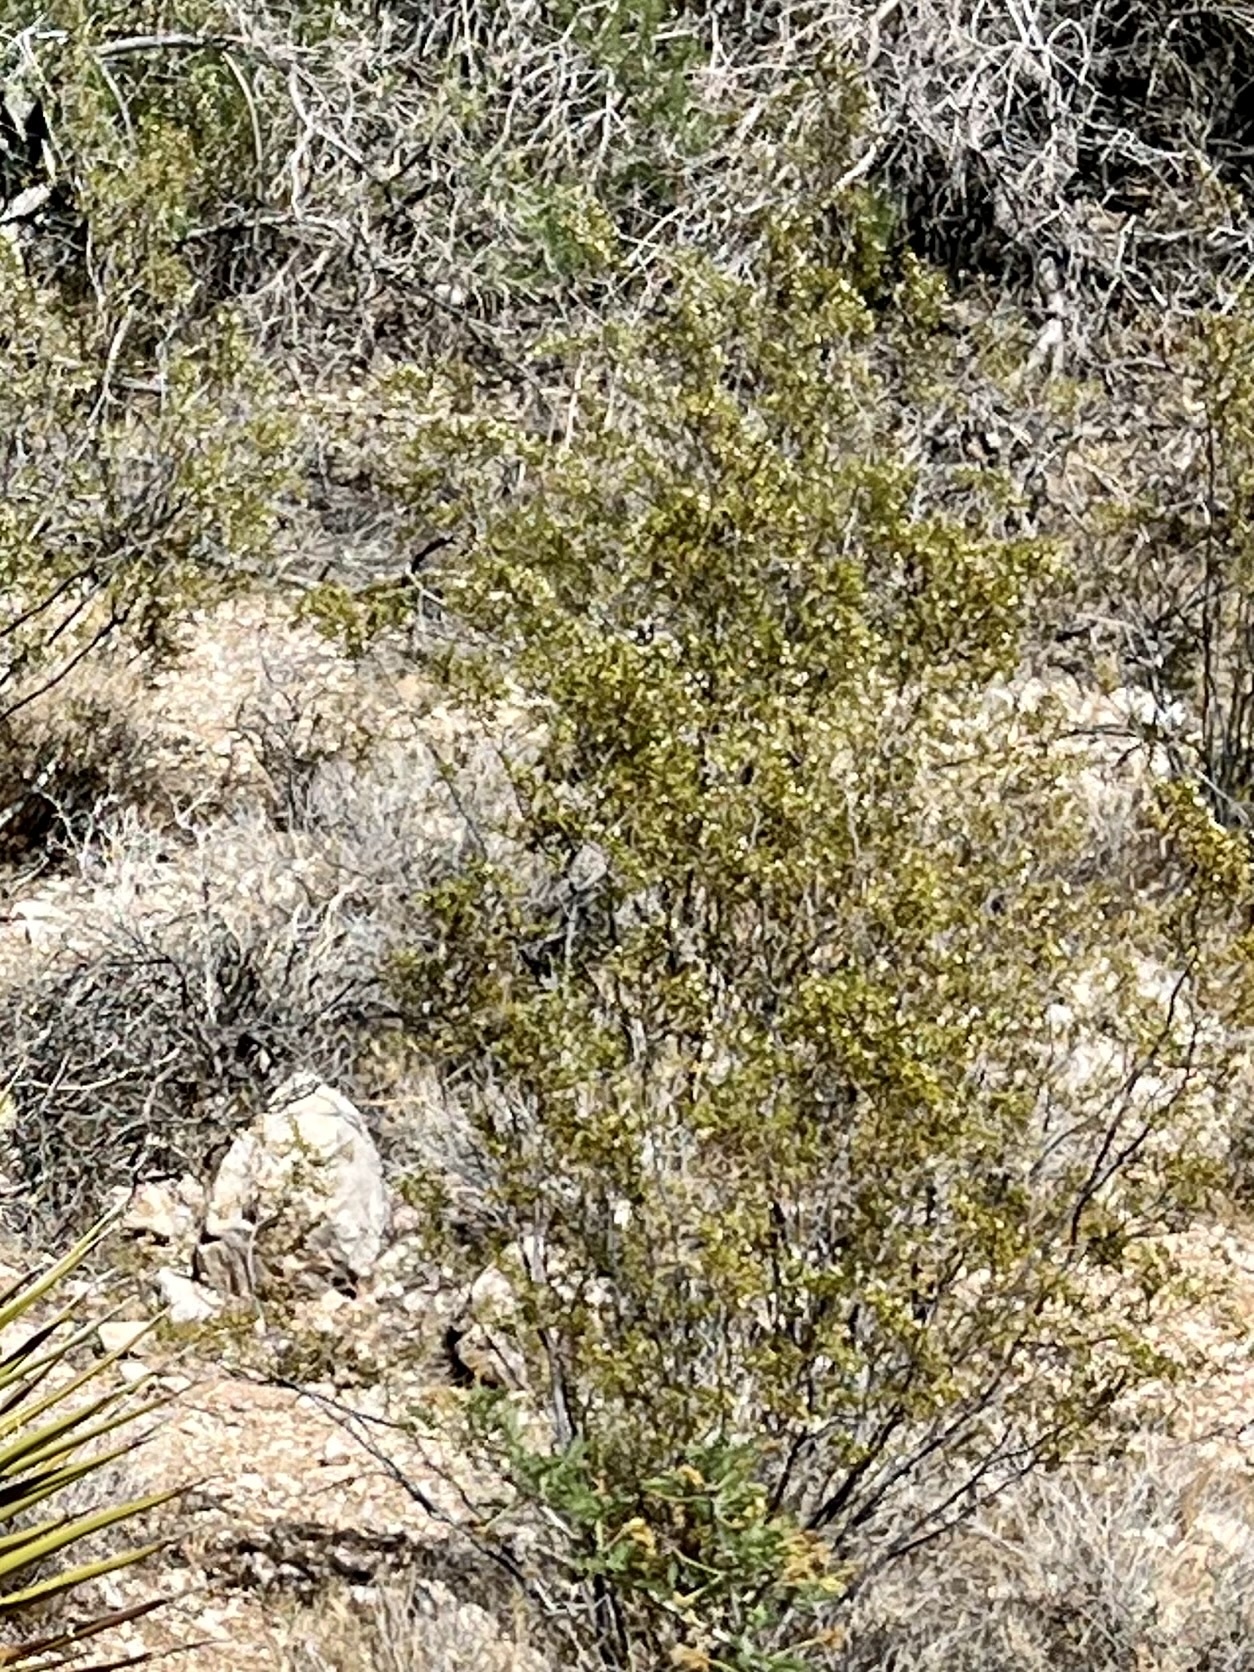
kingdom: Plantae
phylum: Tracheophyta
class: Magnoliopsida
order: Zygophyllales
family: Zygophyllaceae
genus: Larrea
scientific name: Larrea tridentata
